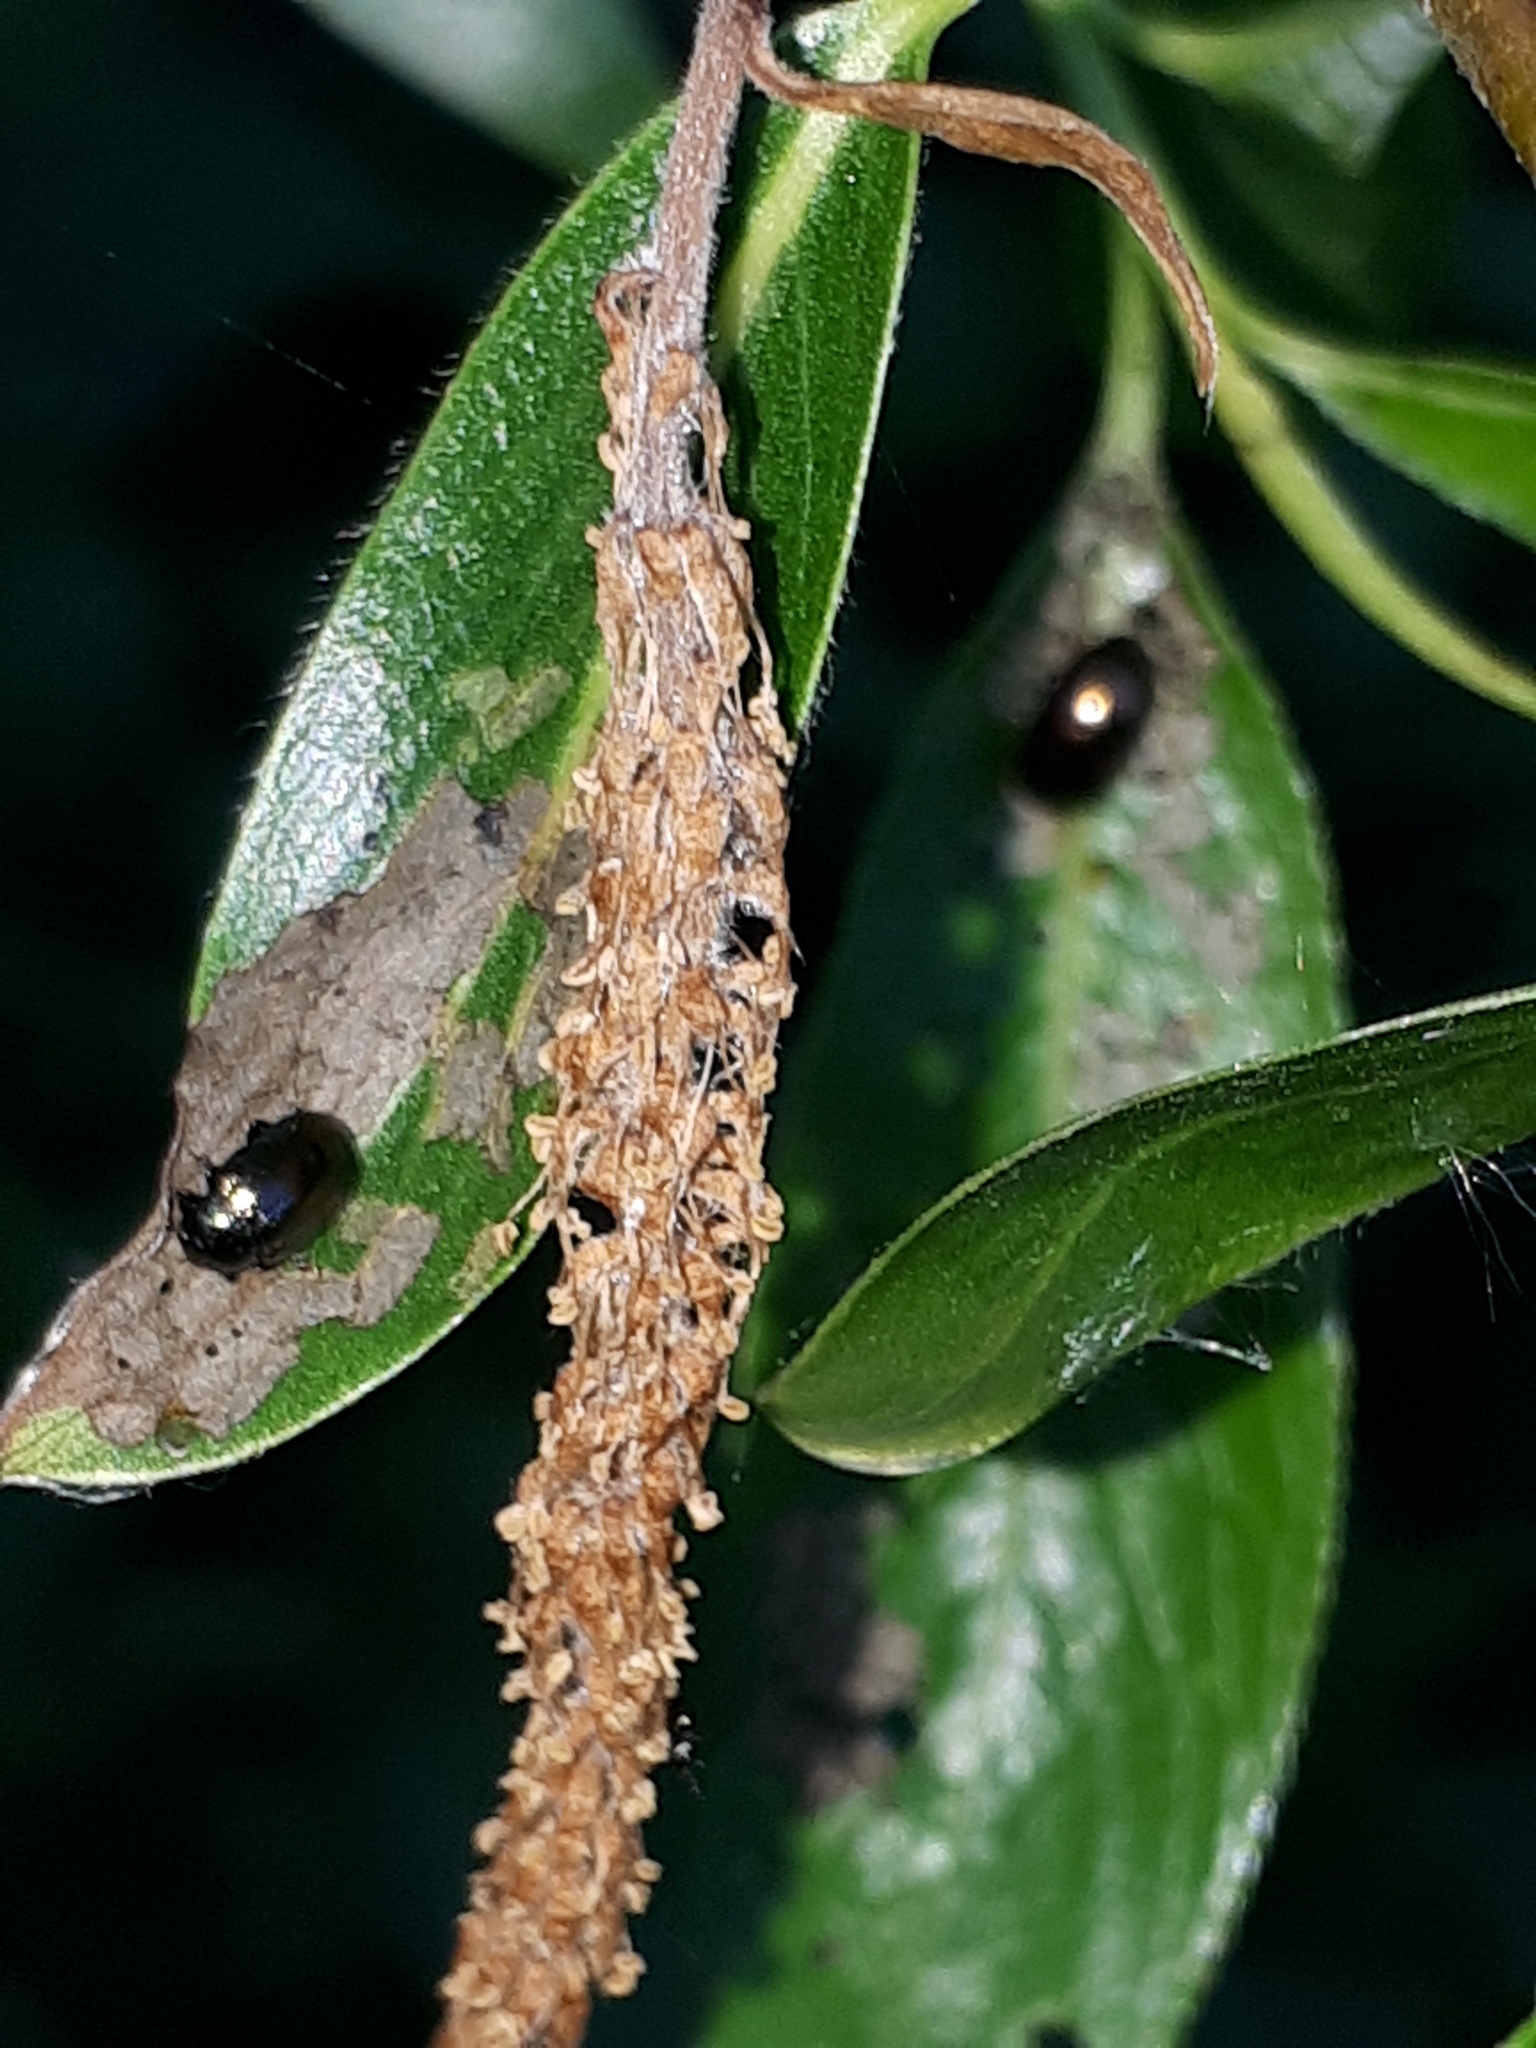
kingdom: Animalia
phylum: Arthropoda
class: Insecta
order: Coleoptera
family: Chrysomelidae
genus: Phratora
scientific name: Phratora vitellinae
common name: Brassy willow beetle
